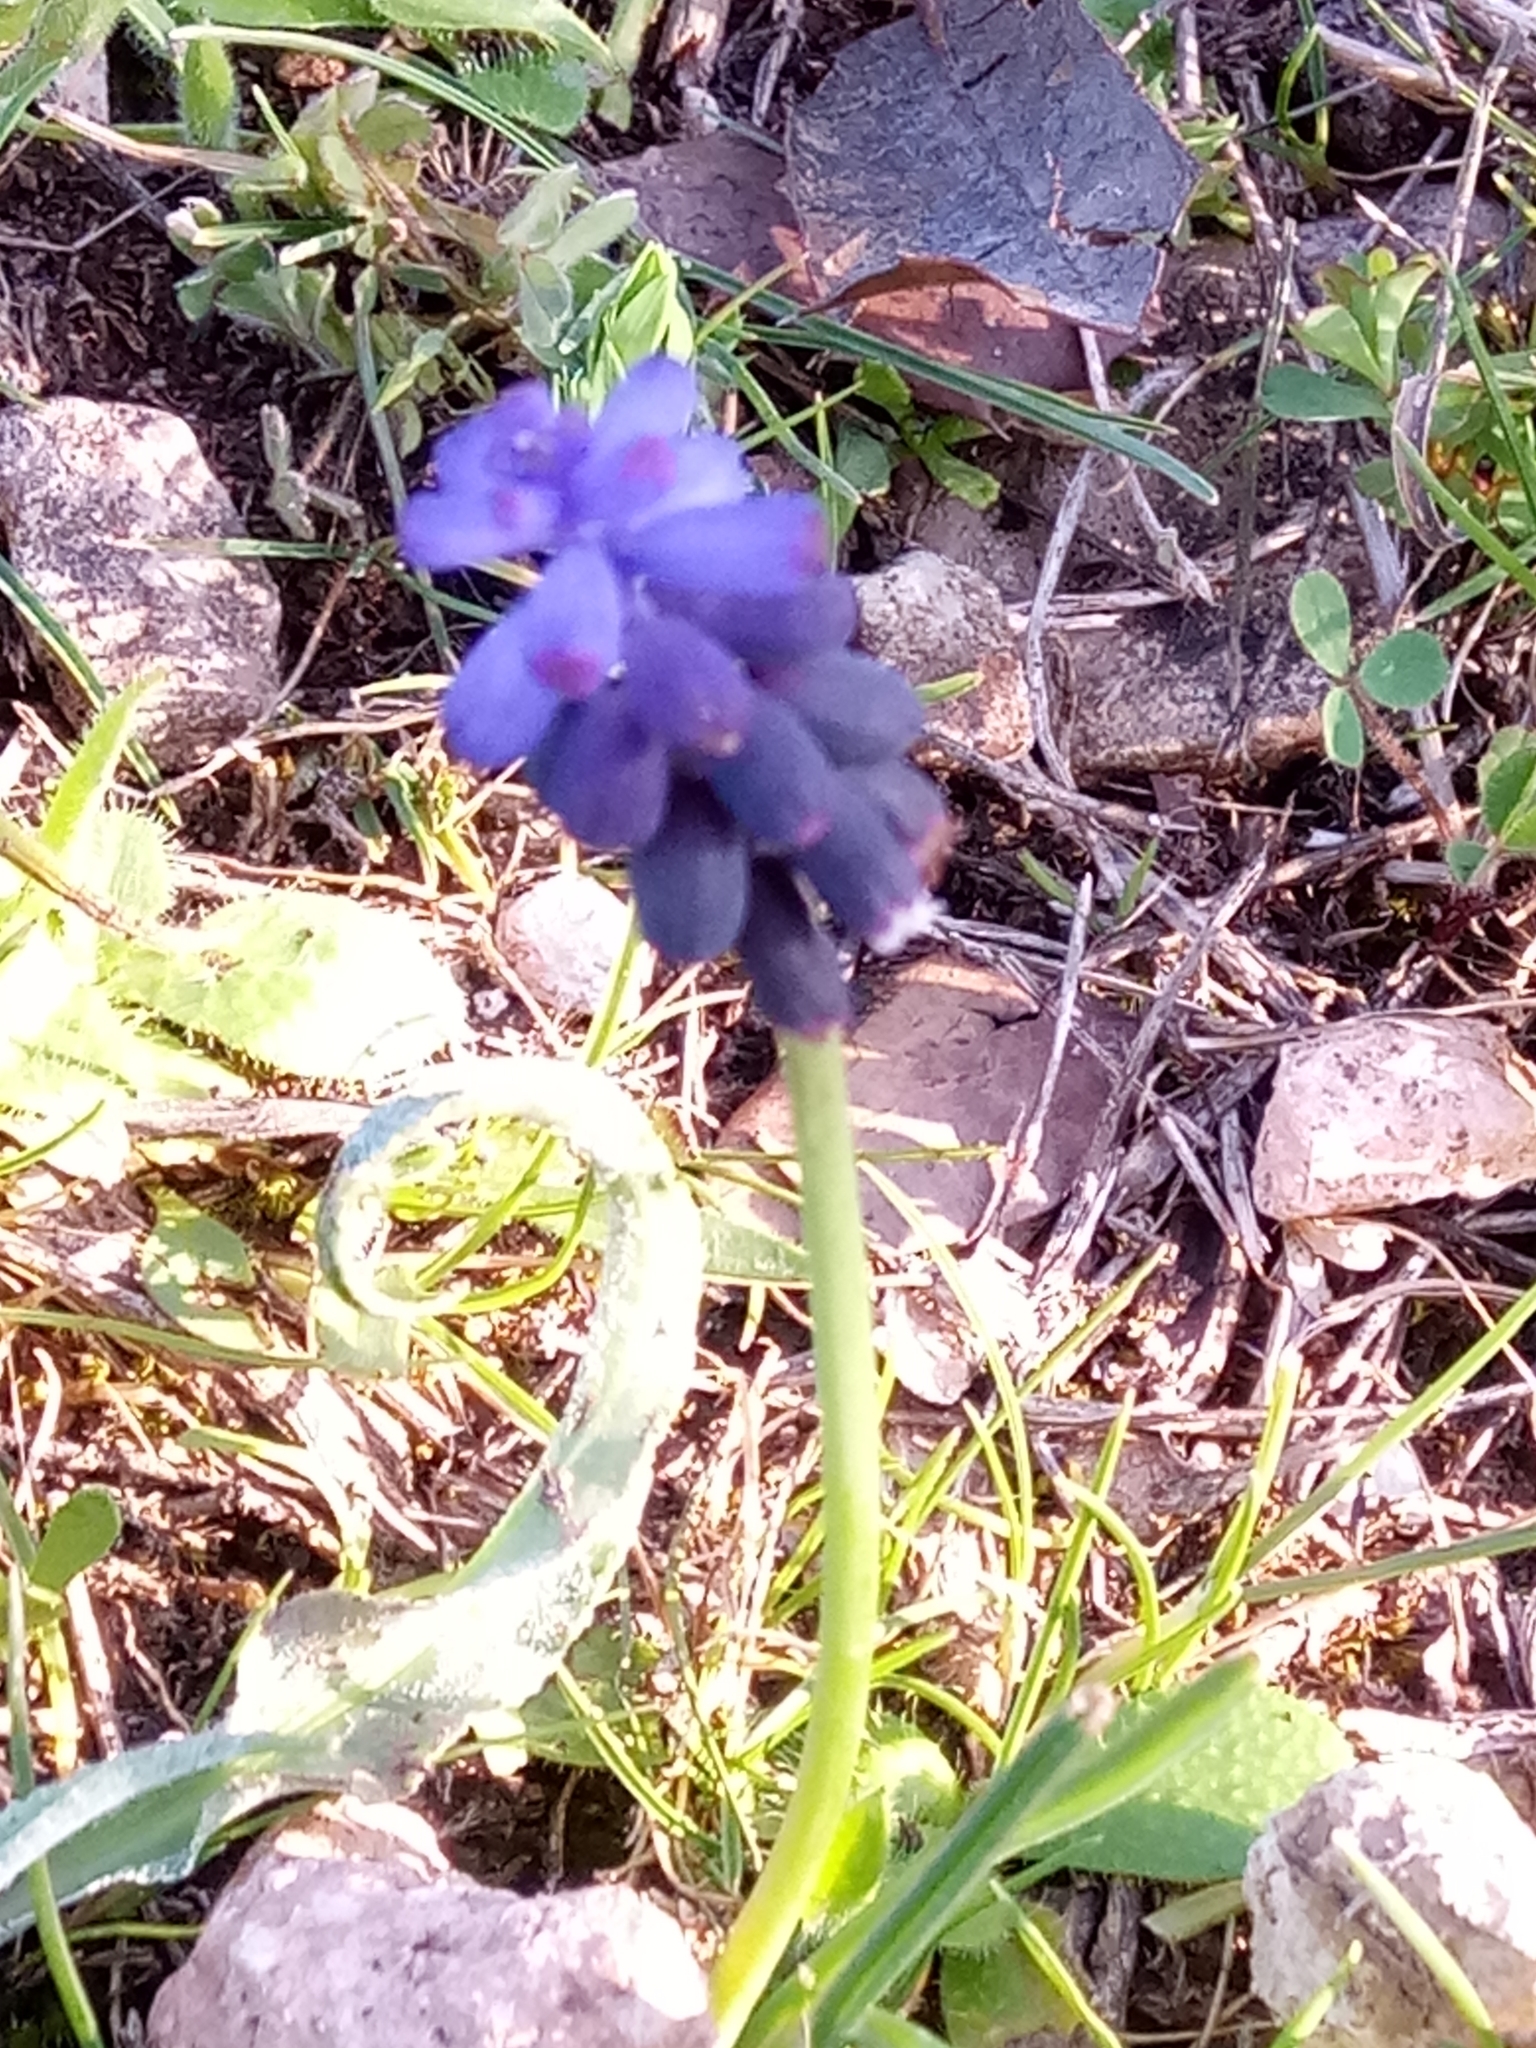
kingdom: Plantae
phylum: Tracheophyta
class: Liliopsida
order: Asparagales
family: Asparagaceae
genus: Muscari
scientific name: Muscari baeticum
